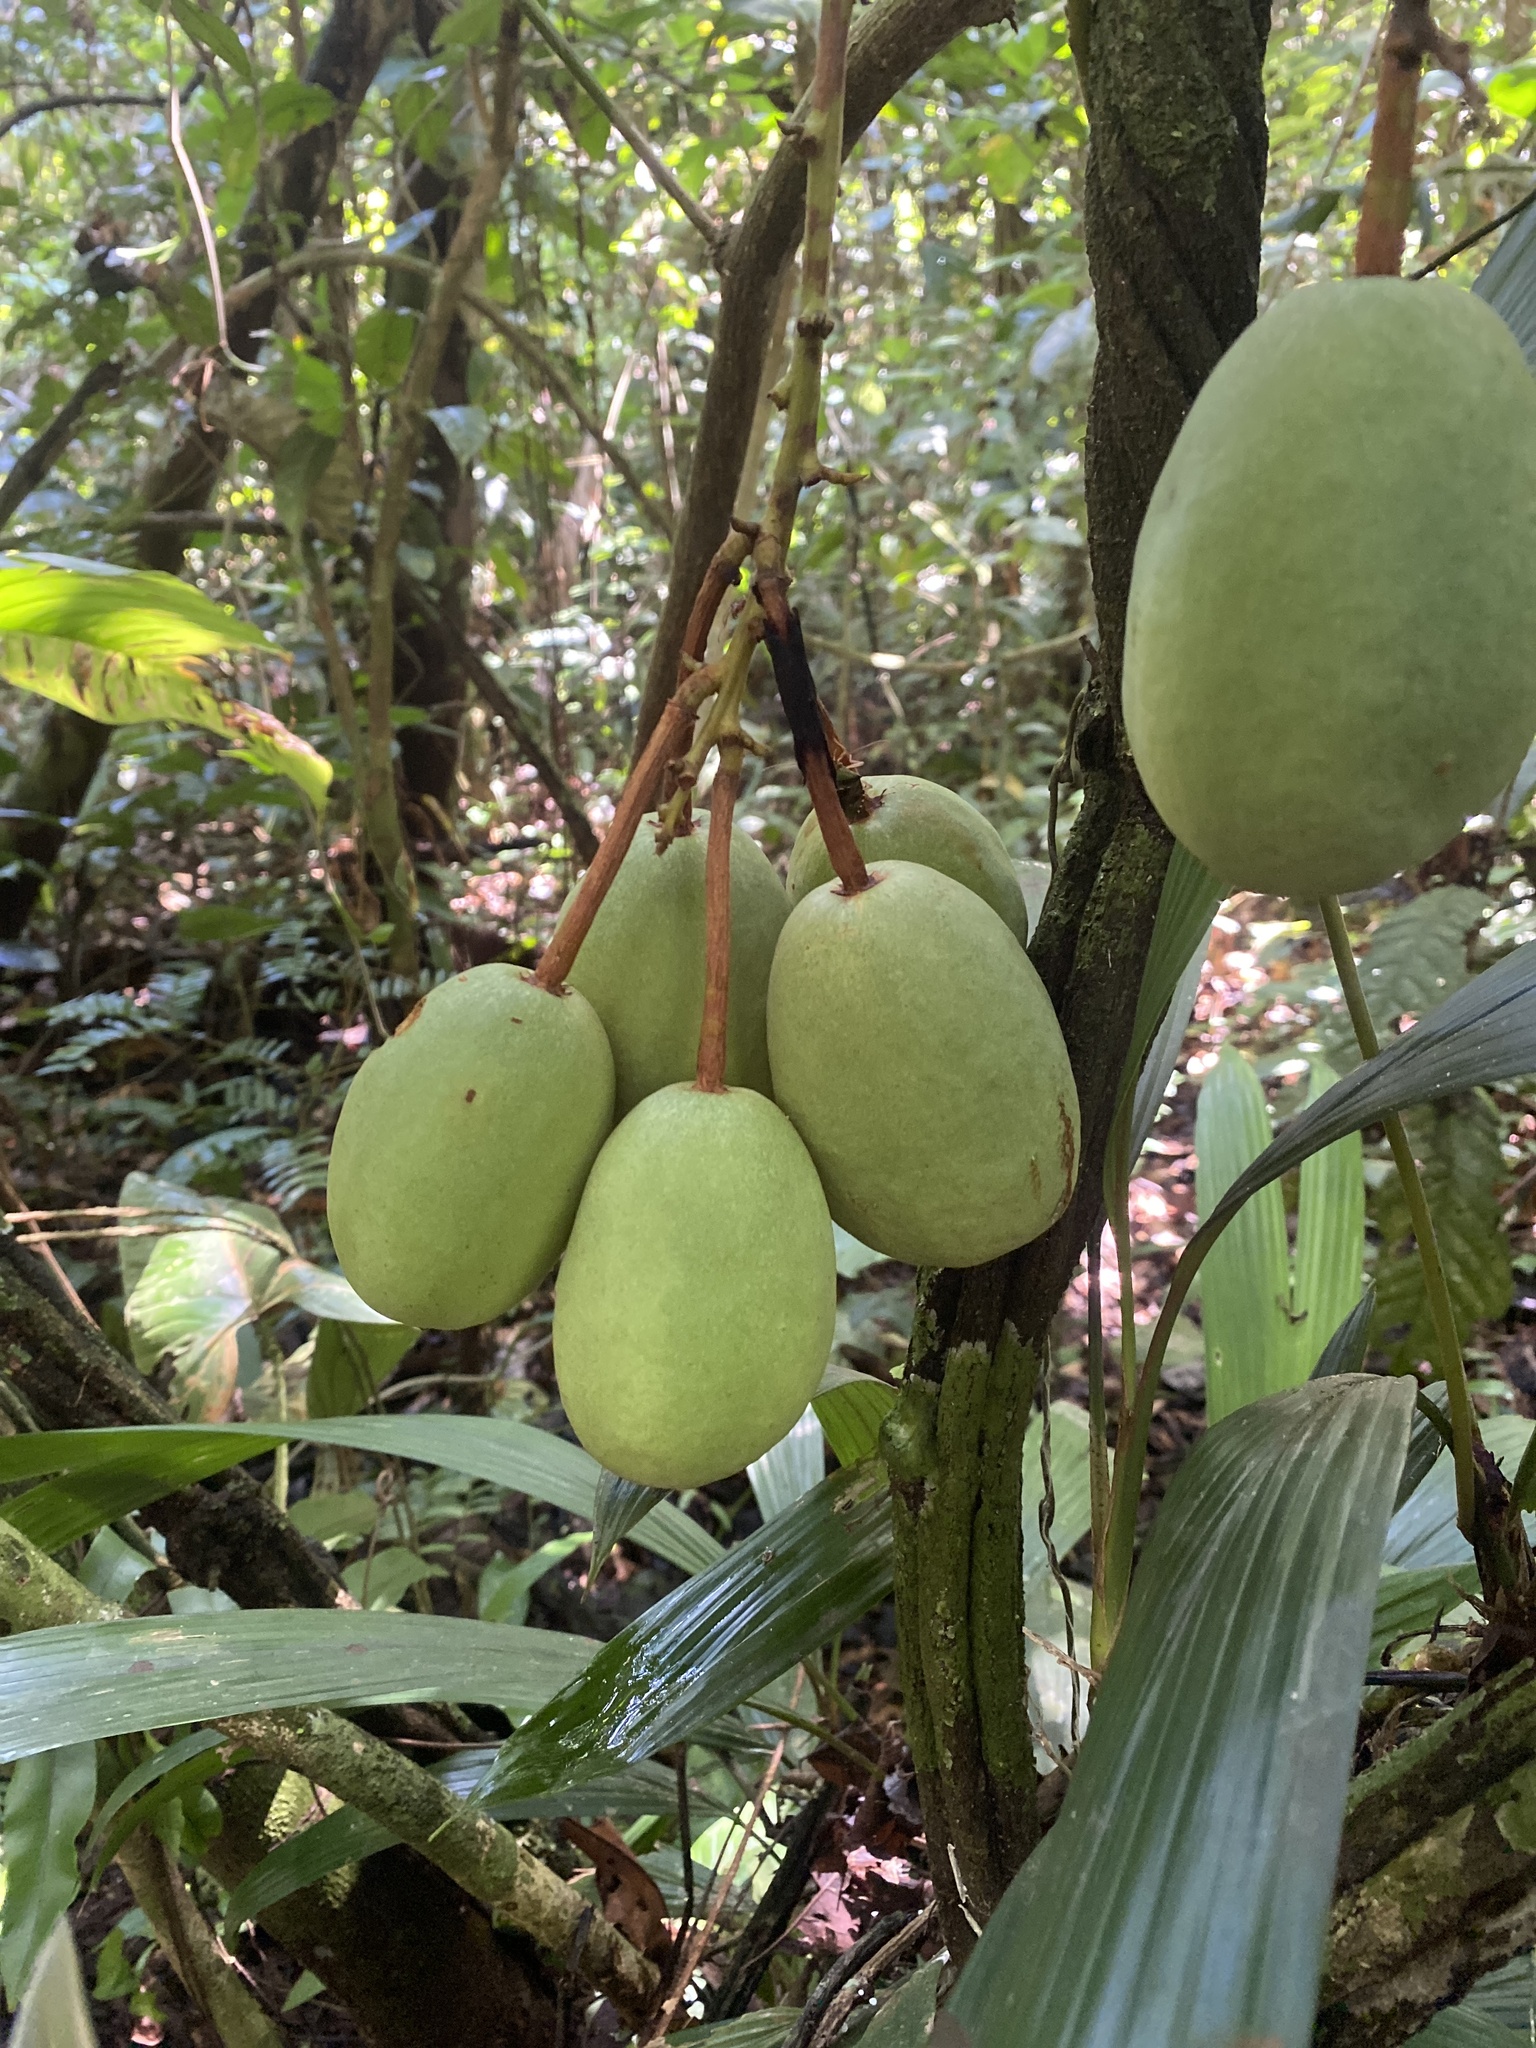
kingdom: Plantae
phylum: Tracheophyta
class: Magnoliopsida
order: Malpighiales
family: Passifloraceae
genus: Passiflora
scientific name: Passiflora spinosa
